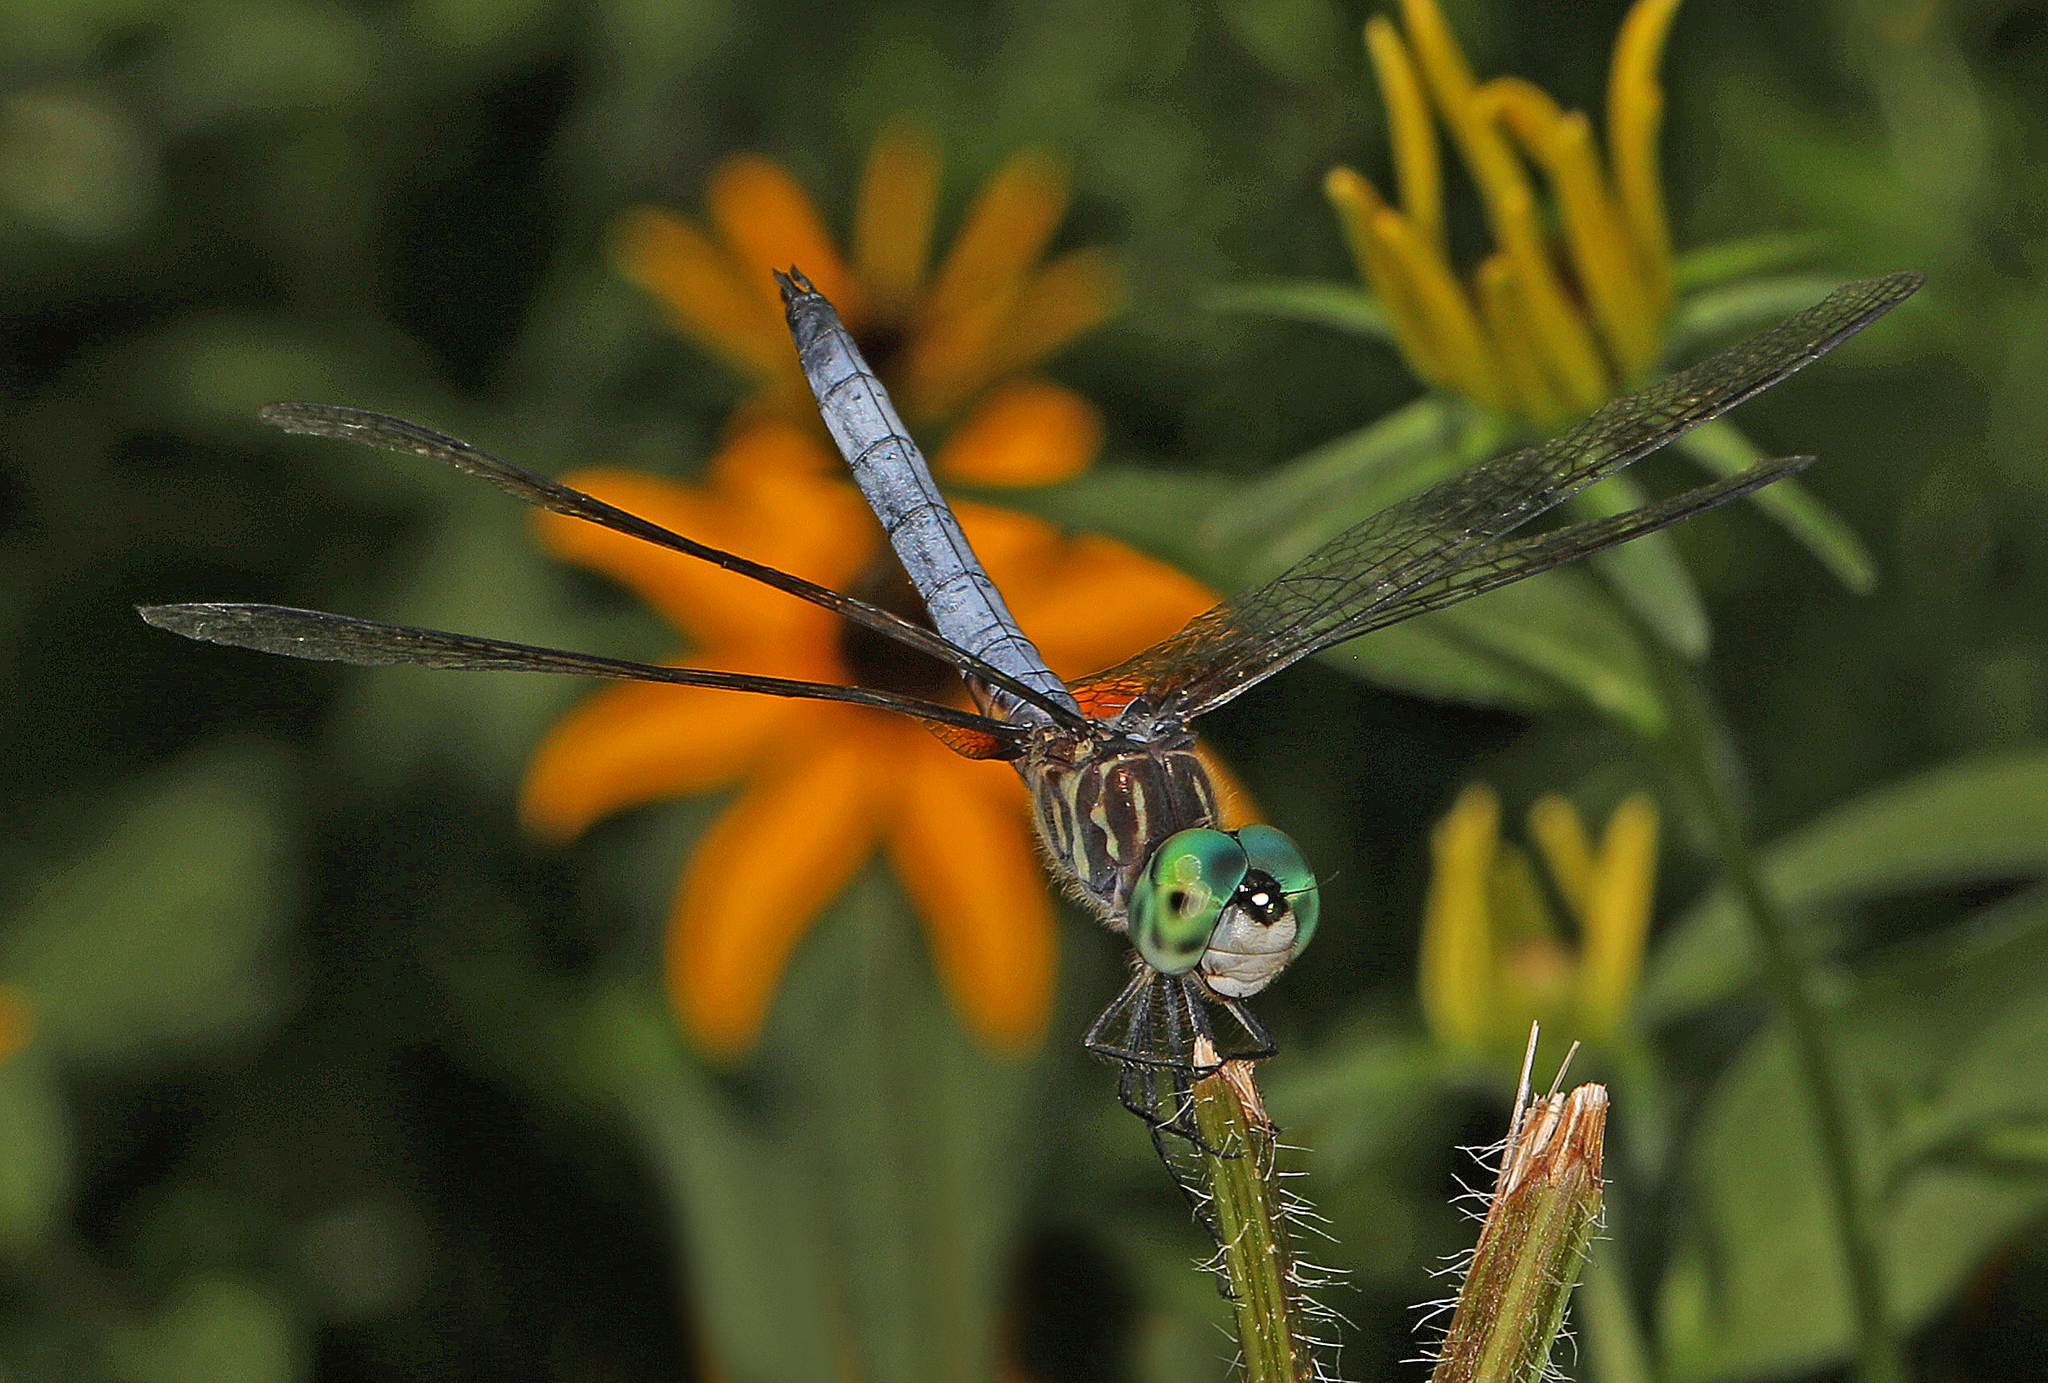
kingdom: Animalia
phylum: Arthropoda
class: Insecta
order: Odonata
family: Libellulidae
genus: Pachydiplax
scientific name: Pachydiplax longipennis
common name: Blue dasher
